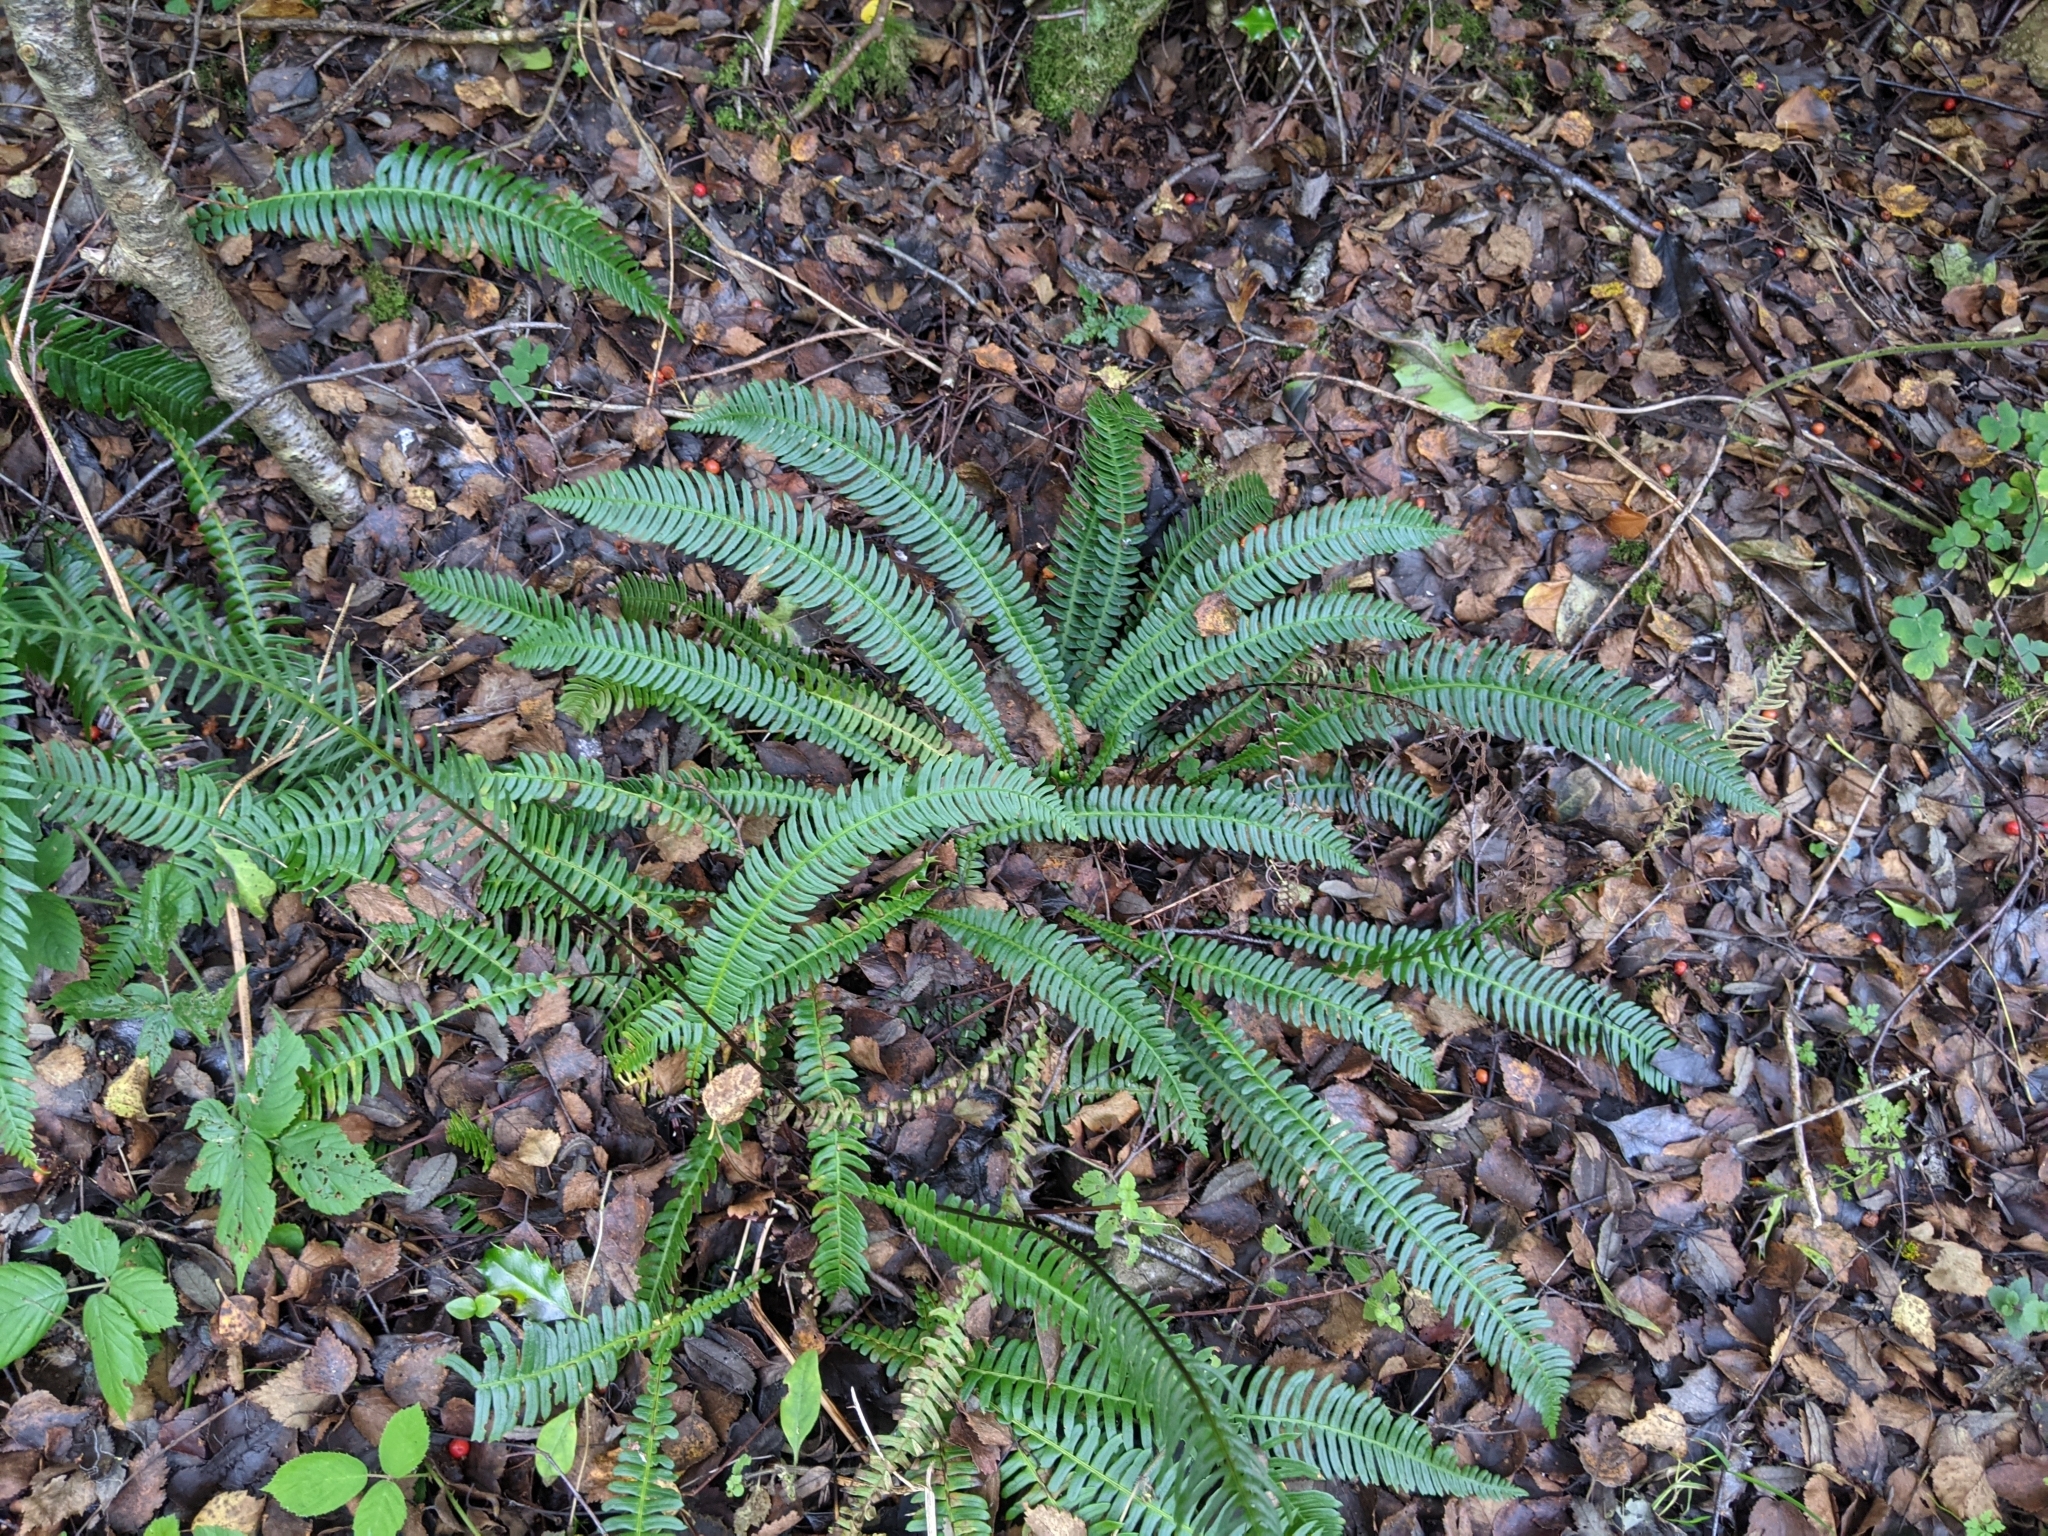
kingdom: Plantae
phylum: Tracheophyta
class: Polypodiopsida
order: Polypodiales
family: Blechnaceae
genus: Struthiopteris
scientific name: Struthiopteris spicant
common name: Deer fern
